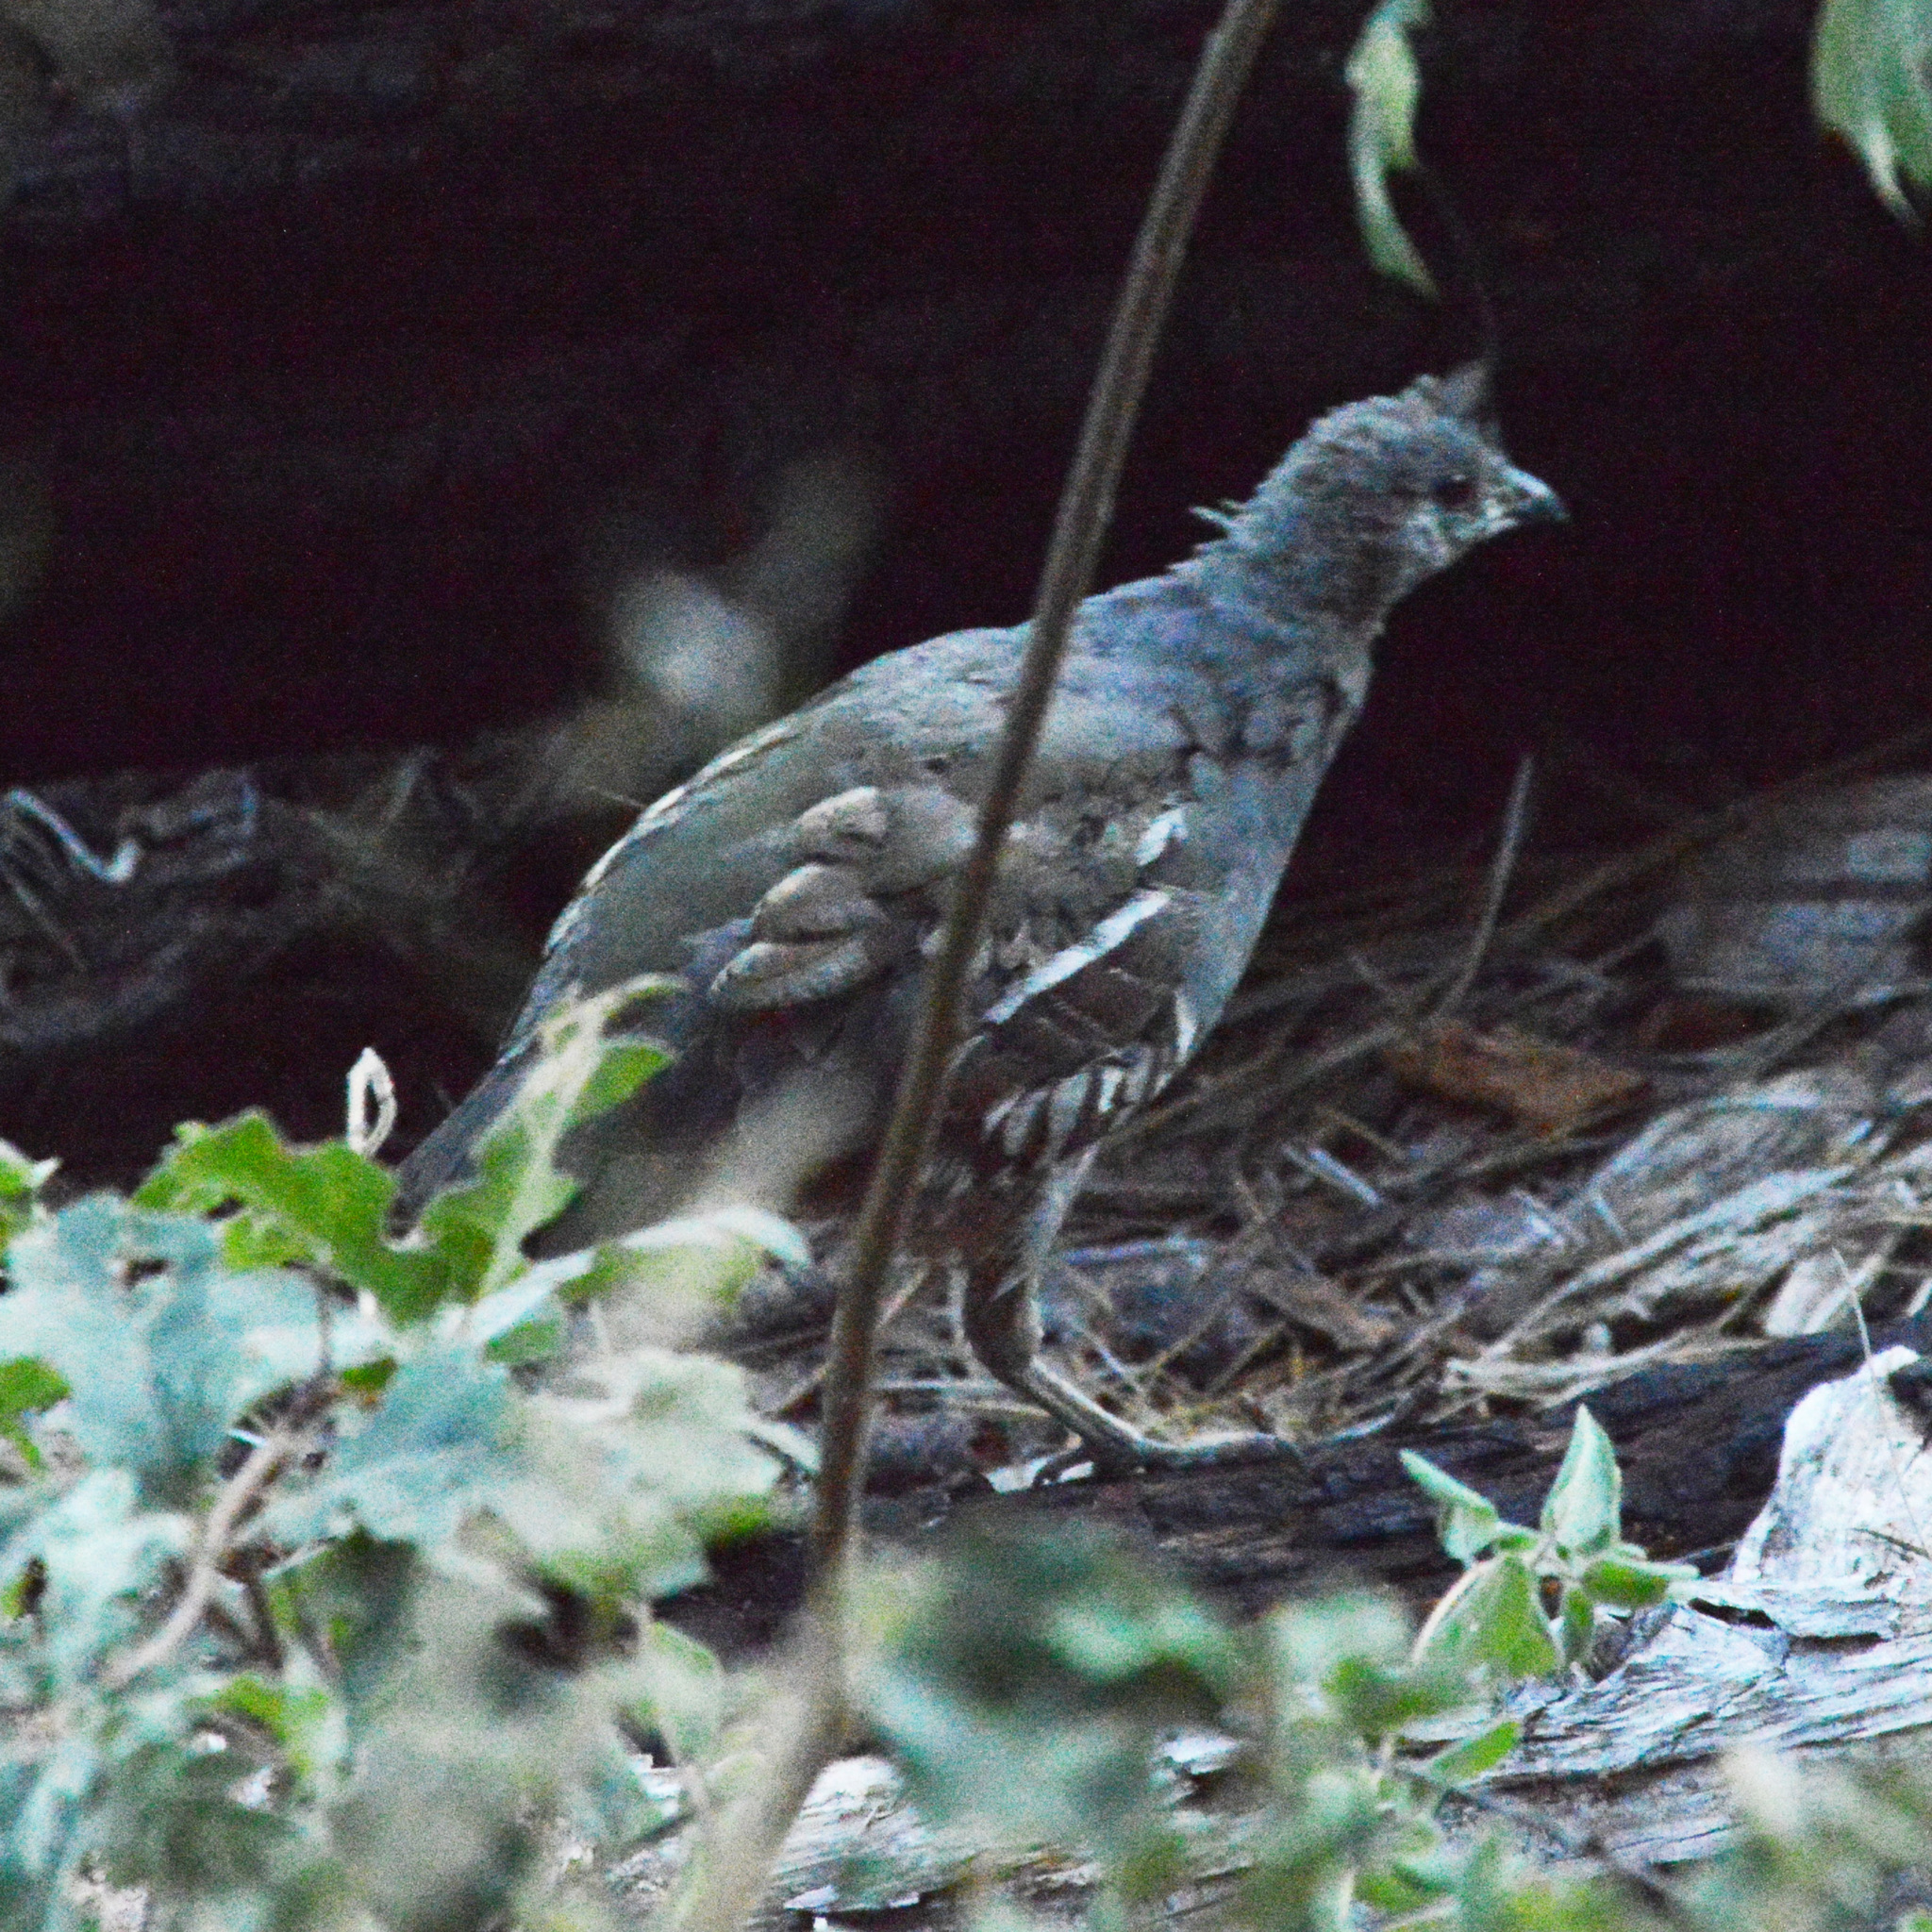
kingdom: Animalia
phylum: Chordata
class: Aves
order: Galliformes
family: Odontophoridae
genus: Oreortyx
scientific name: Oreortyx pictus
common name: Mountain quail
